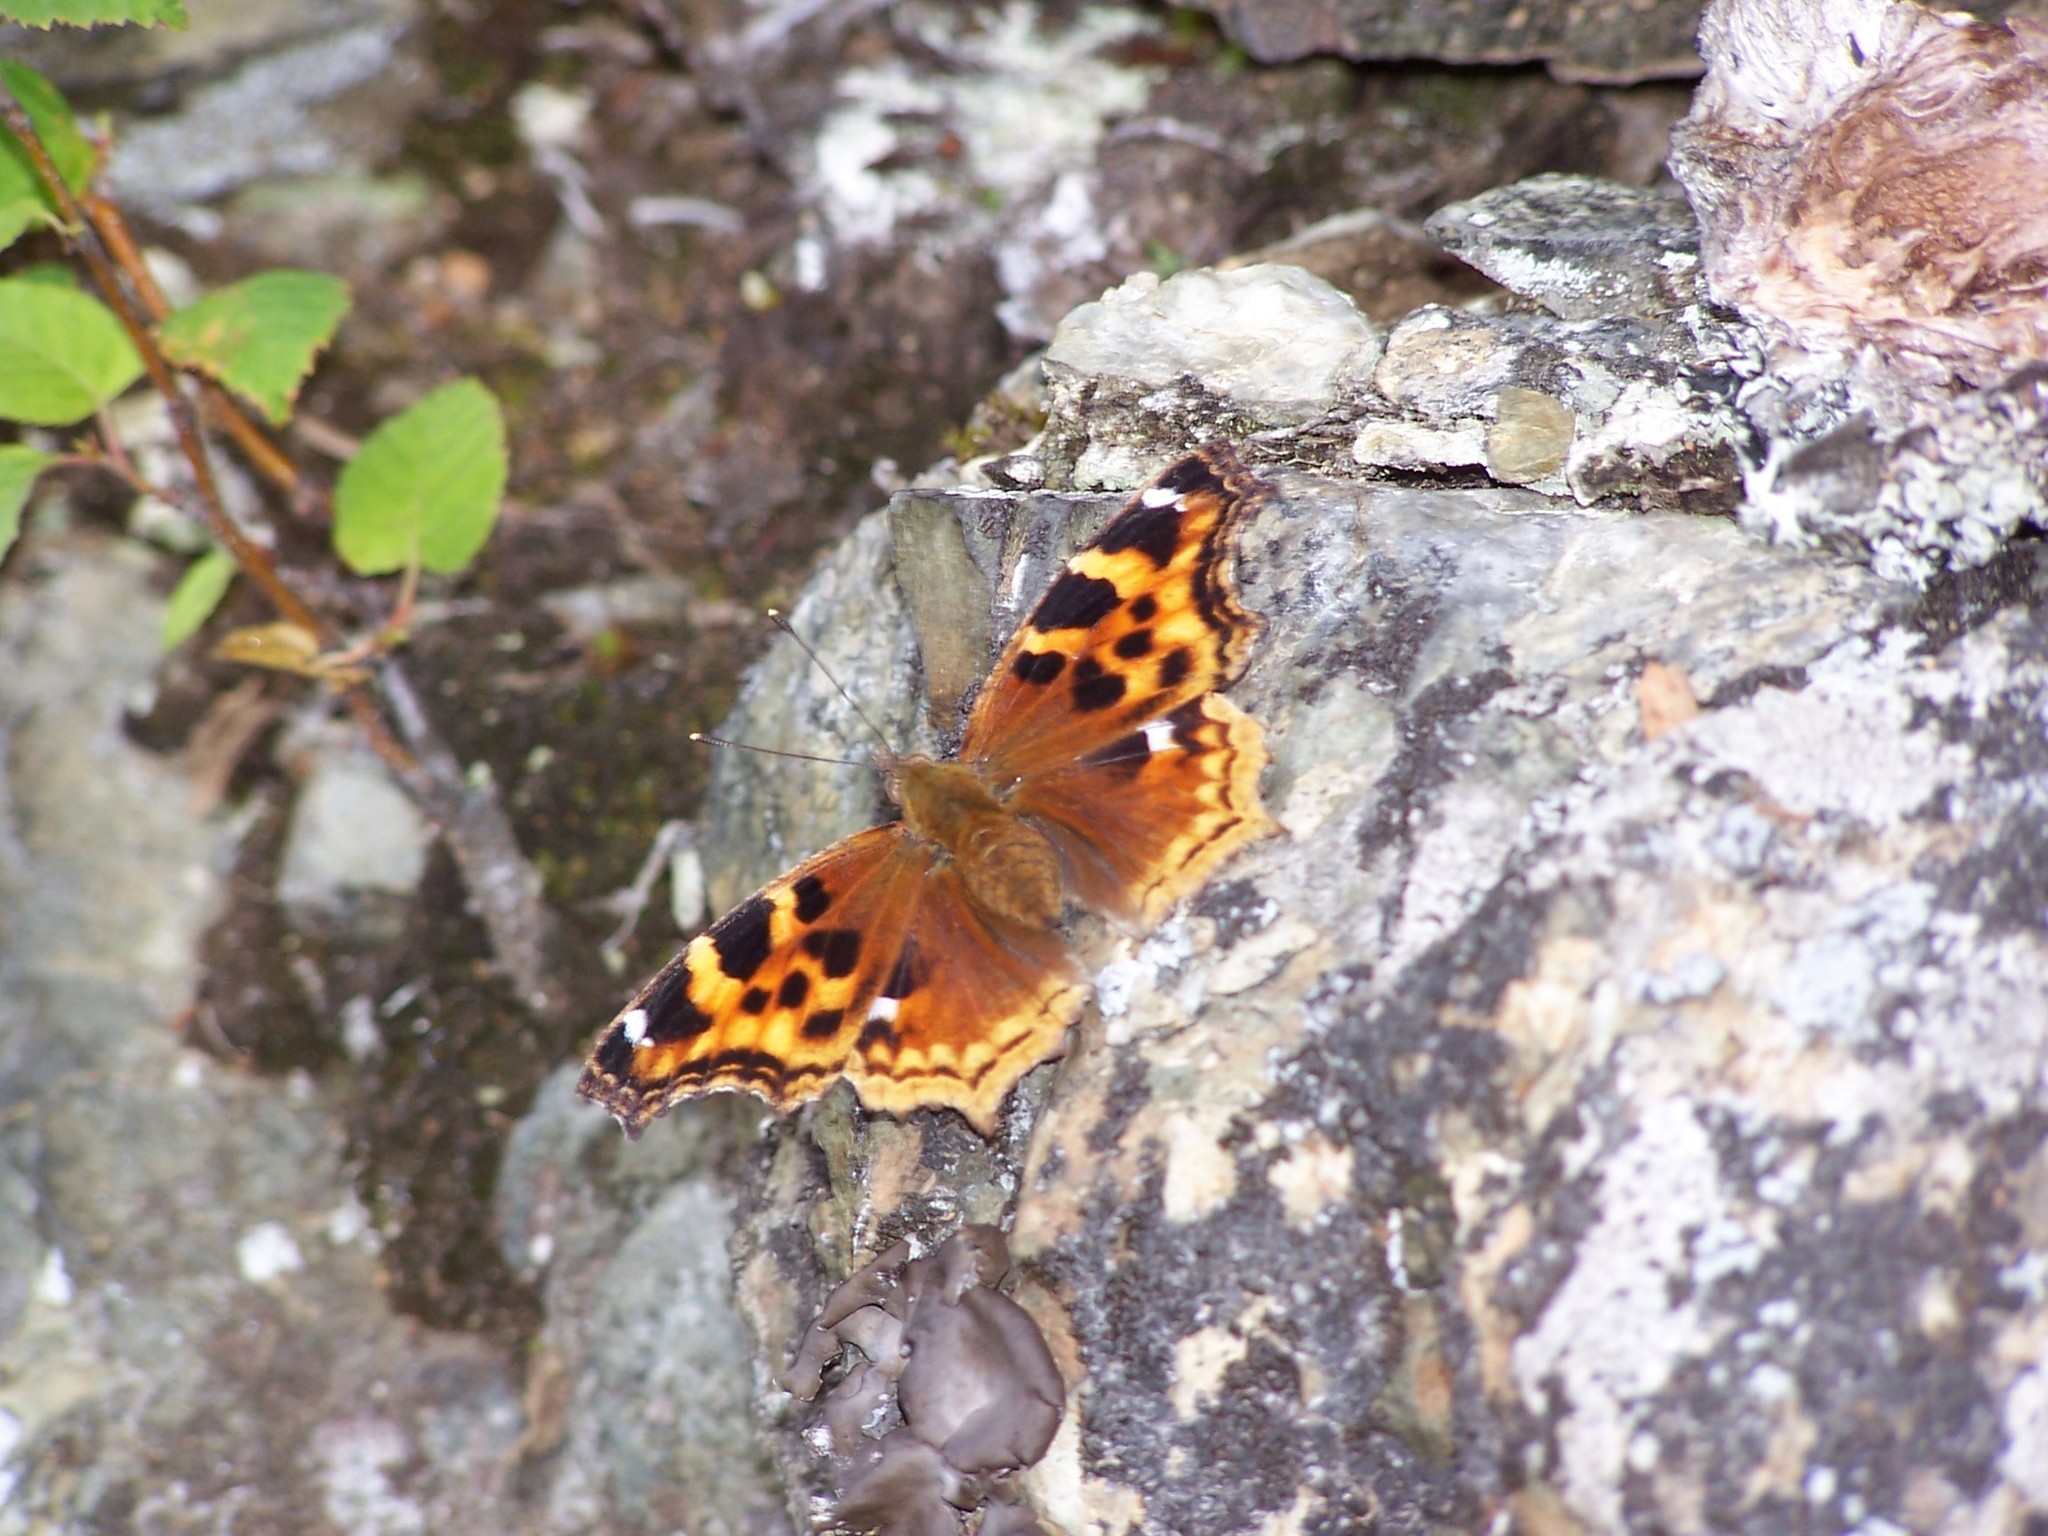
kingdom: Animalia
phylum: Arthropoda
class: Insecta
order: Lepidoptera
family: Nymphalidae
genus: Polygonia
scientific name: Polygonia vaualbum
